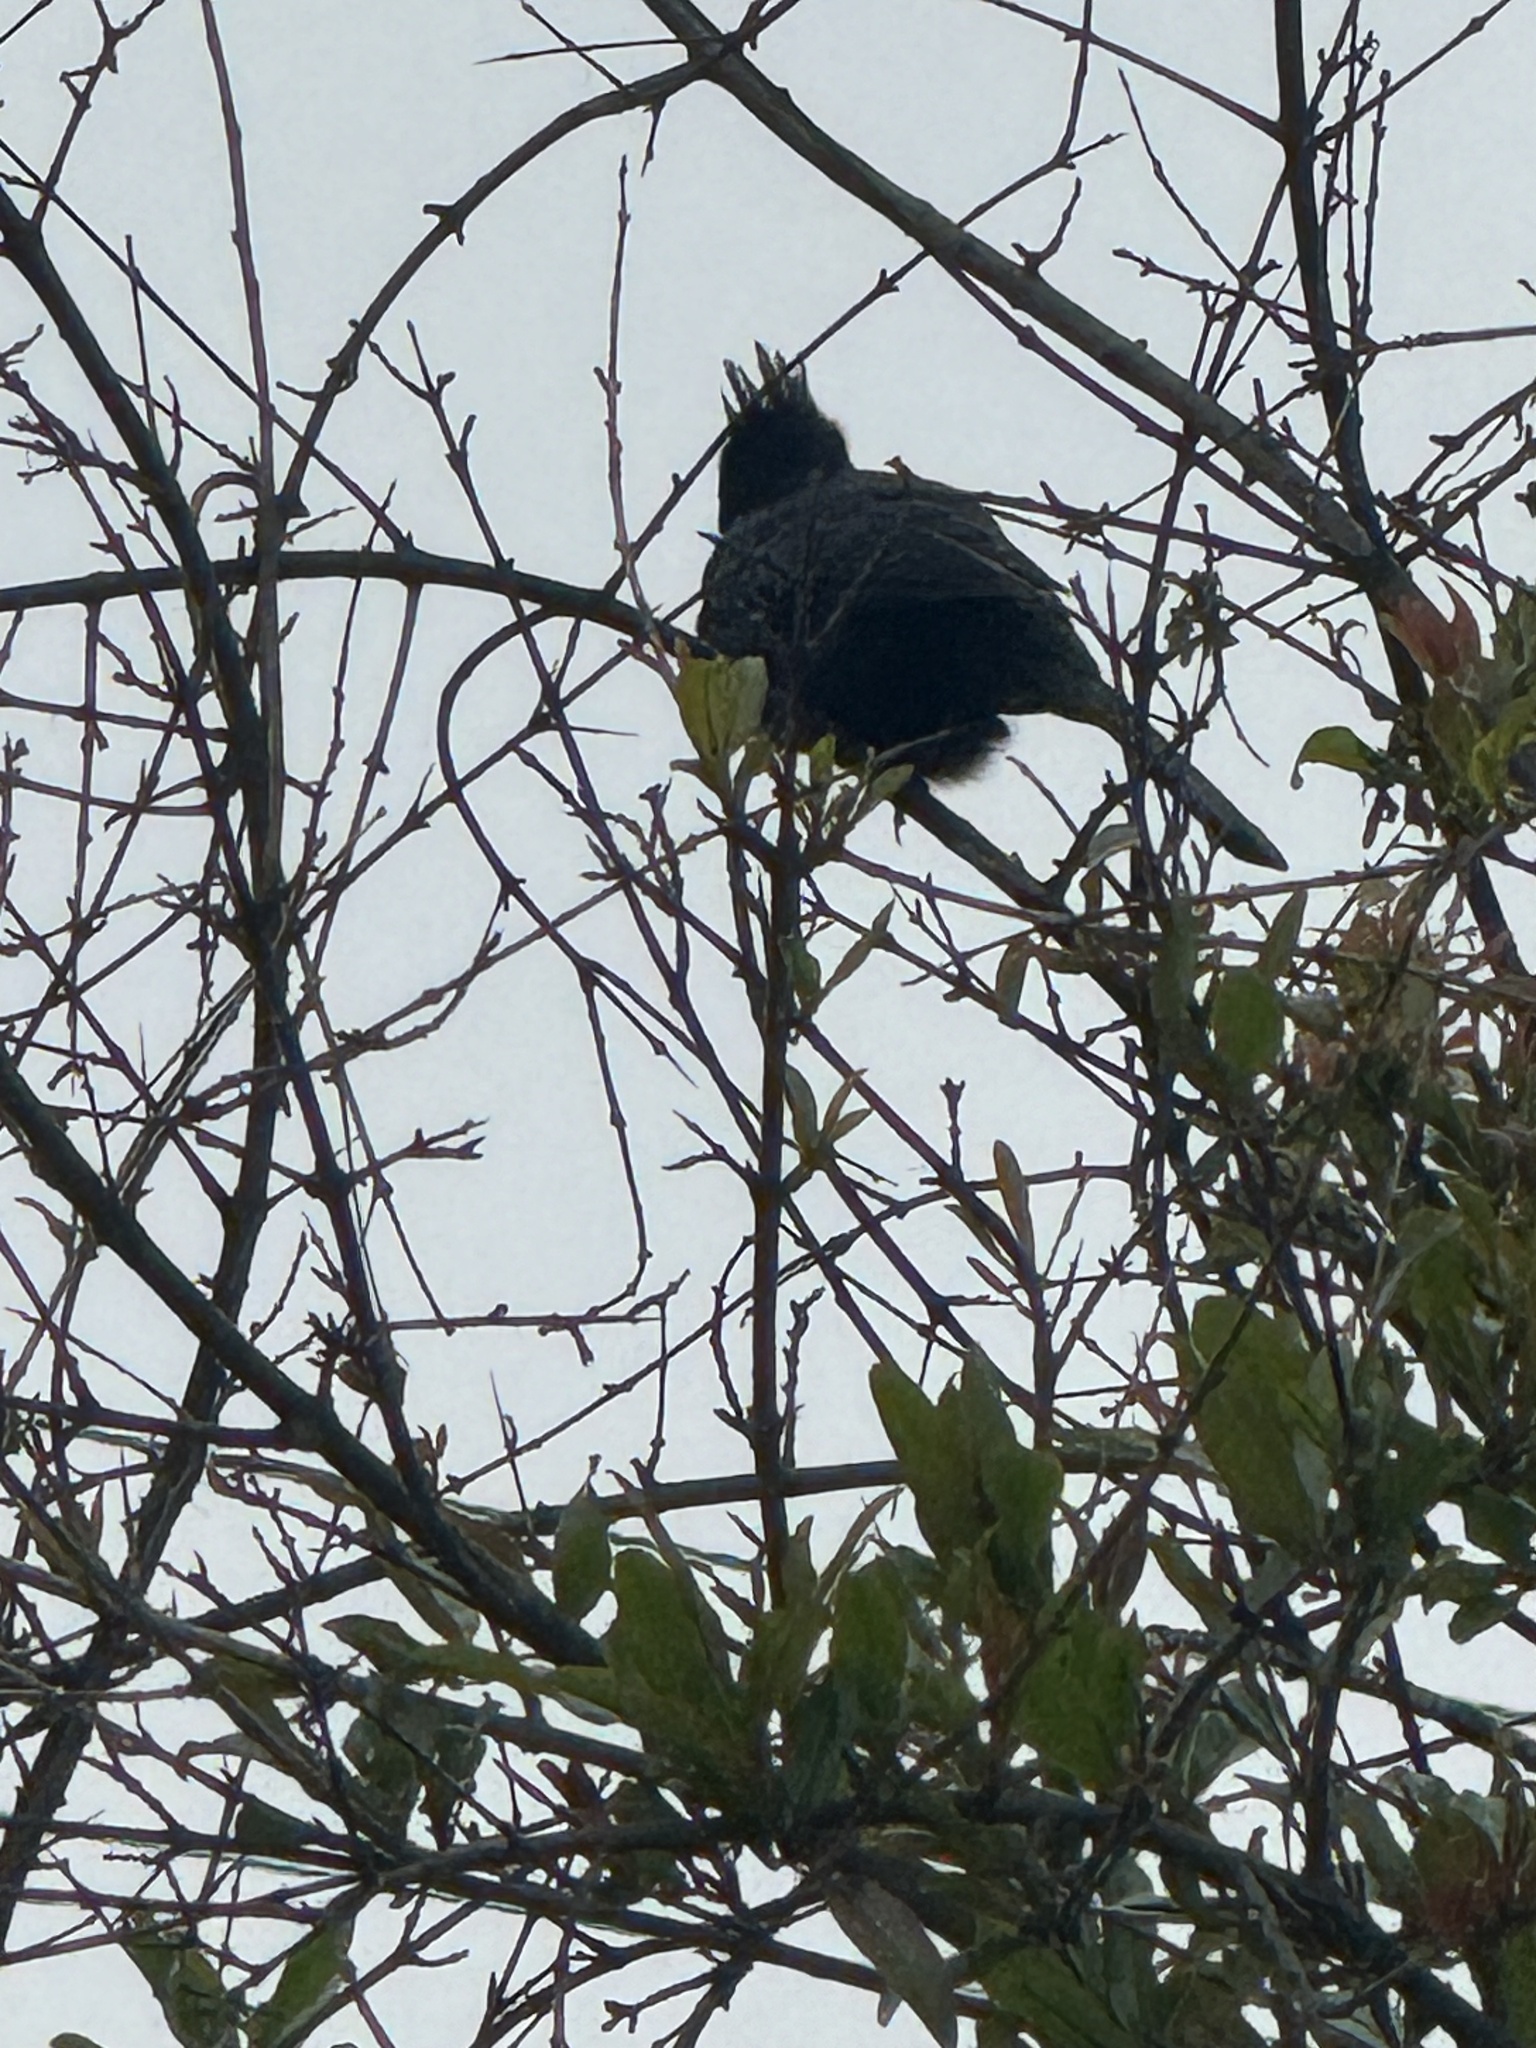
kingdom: Animalia
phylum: Chordata
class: Aves
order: Passeriformes
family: Ptilogonatidae
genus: Phainopepla
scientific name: Phainopepla nitens
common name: Phainopepla
